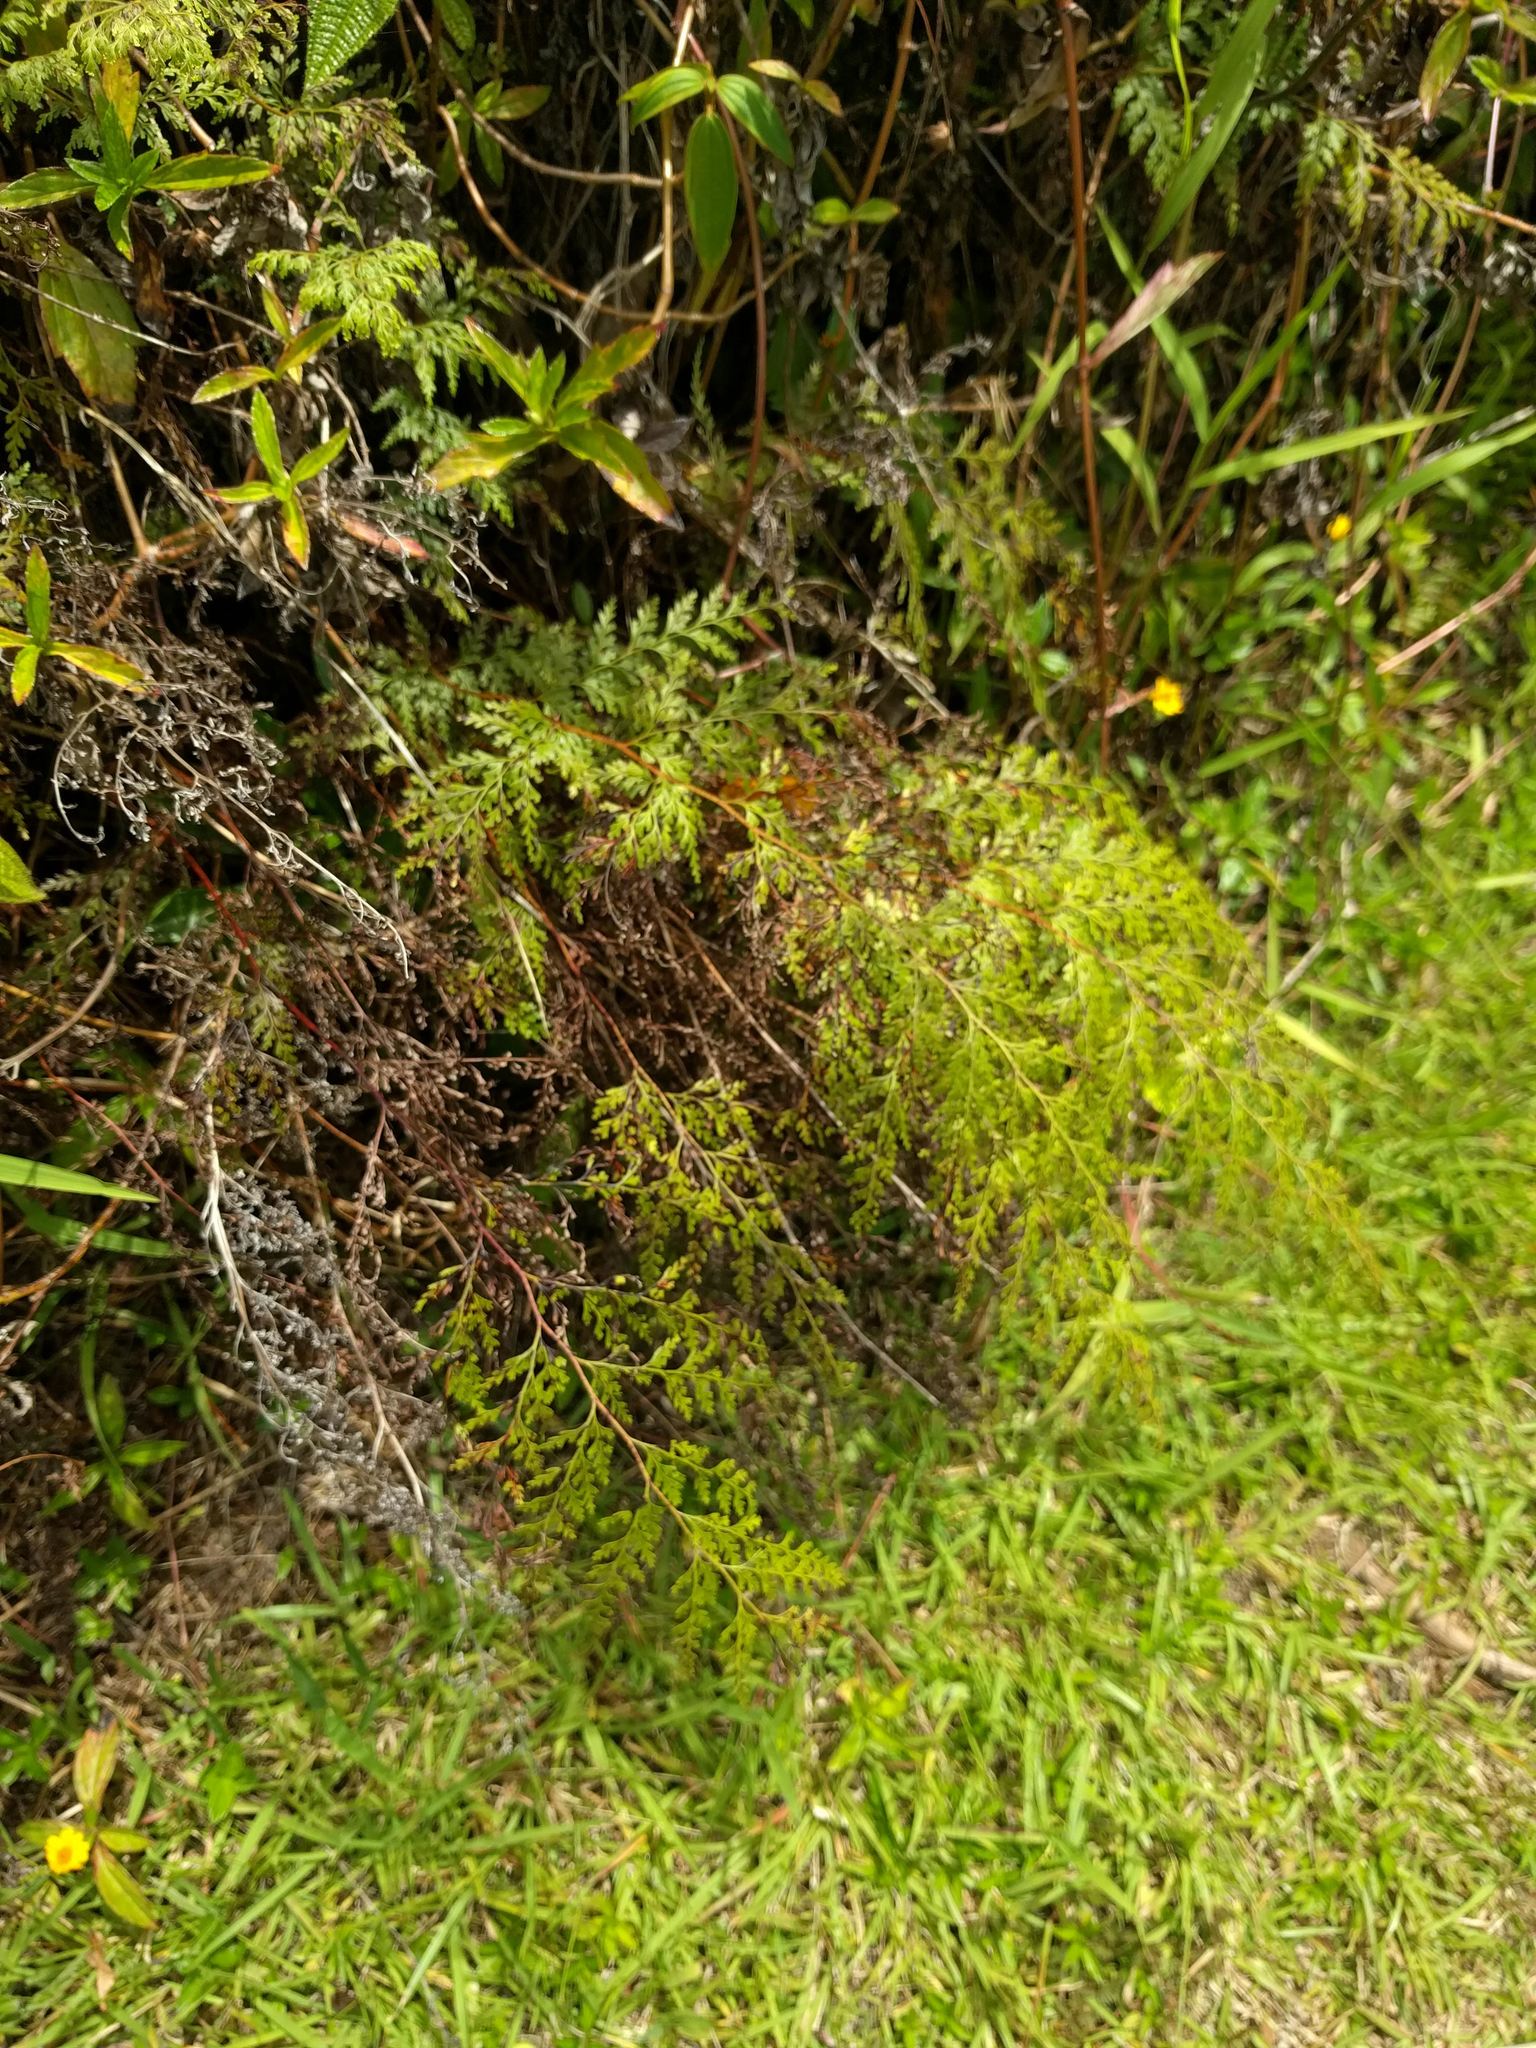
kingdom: Plantae
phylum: Tracheophyta
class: Polypodiopsida
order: Polypodiales
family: Lindsaeaceae
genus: Odontosoria
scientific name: Odontosoria chinensis
